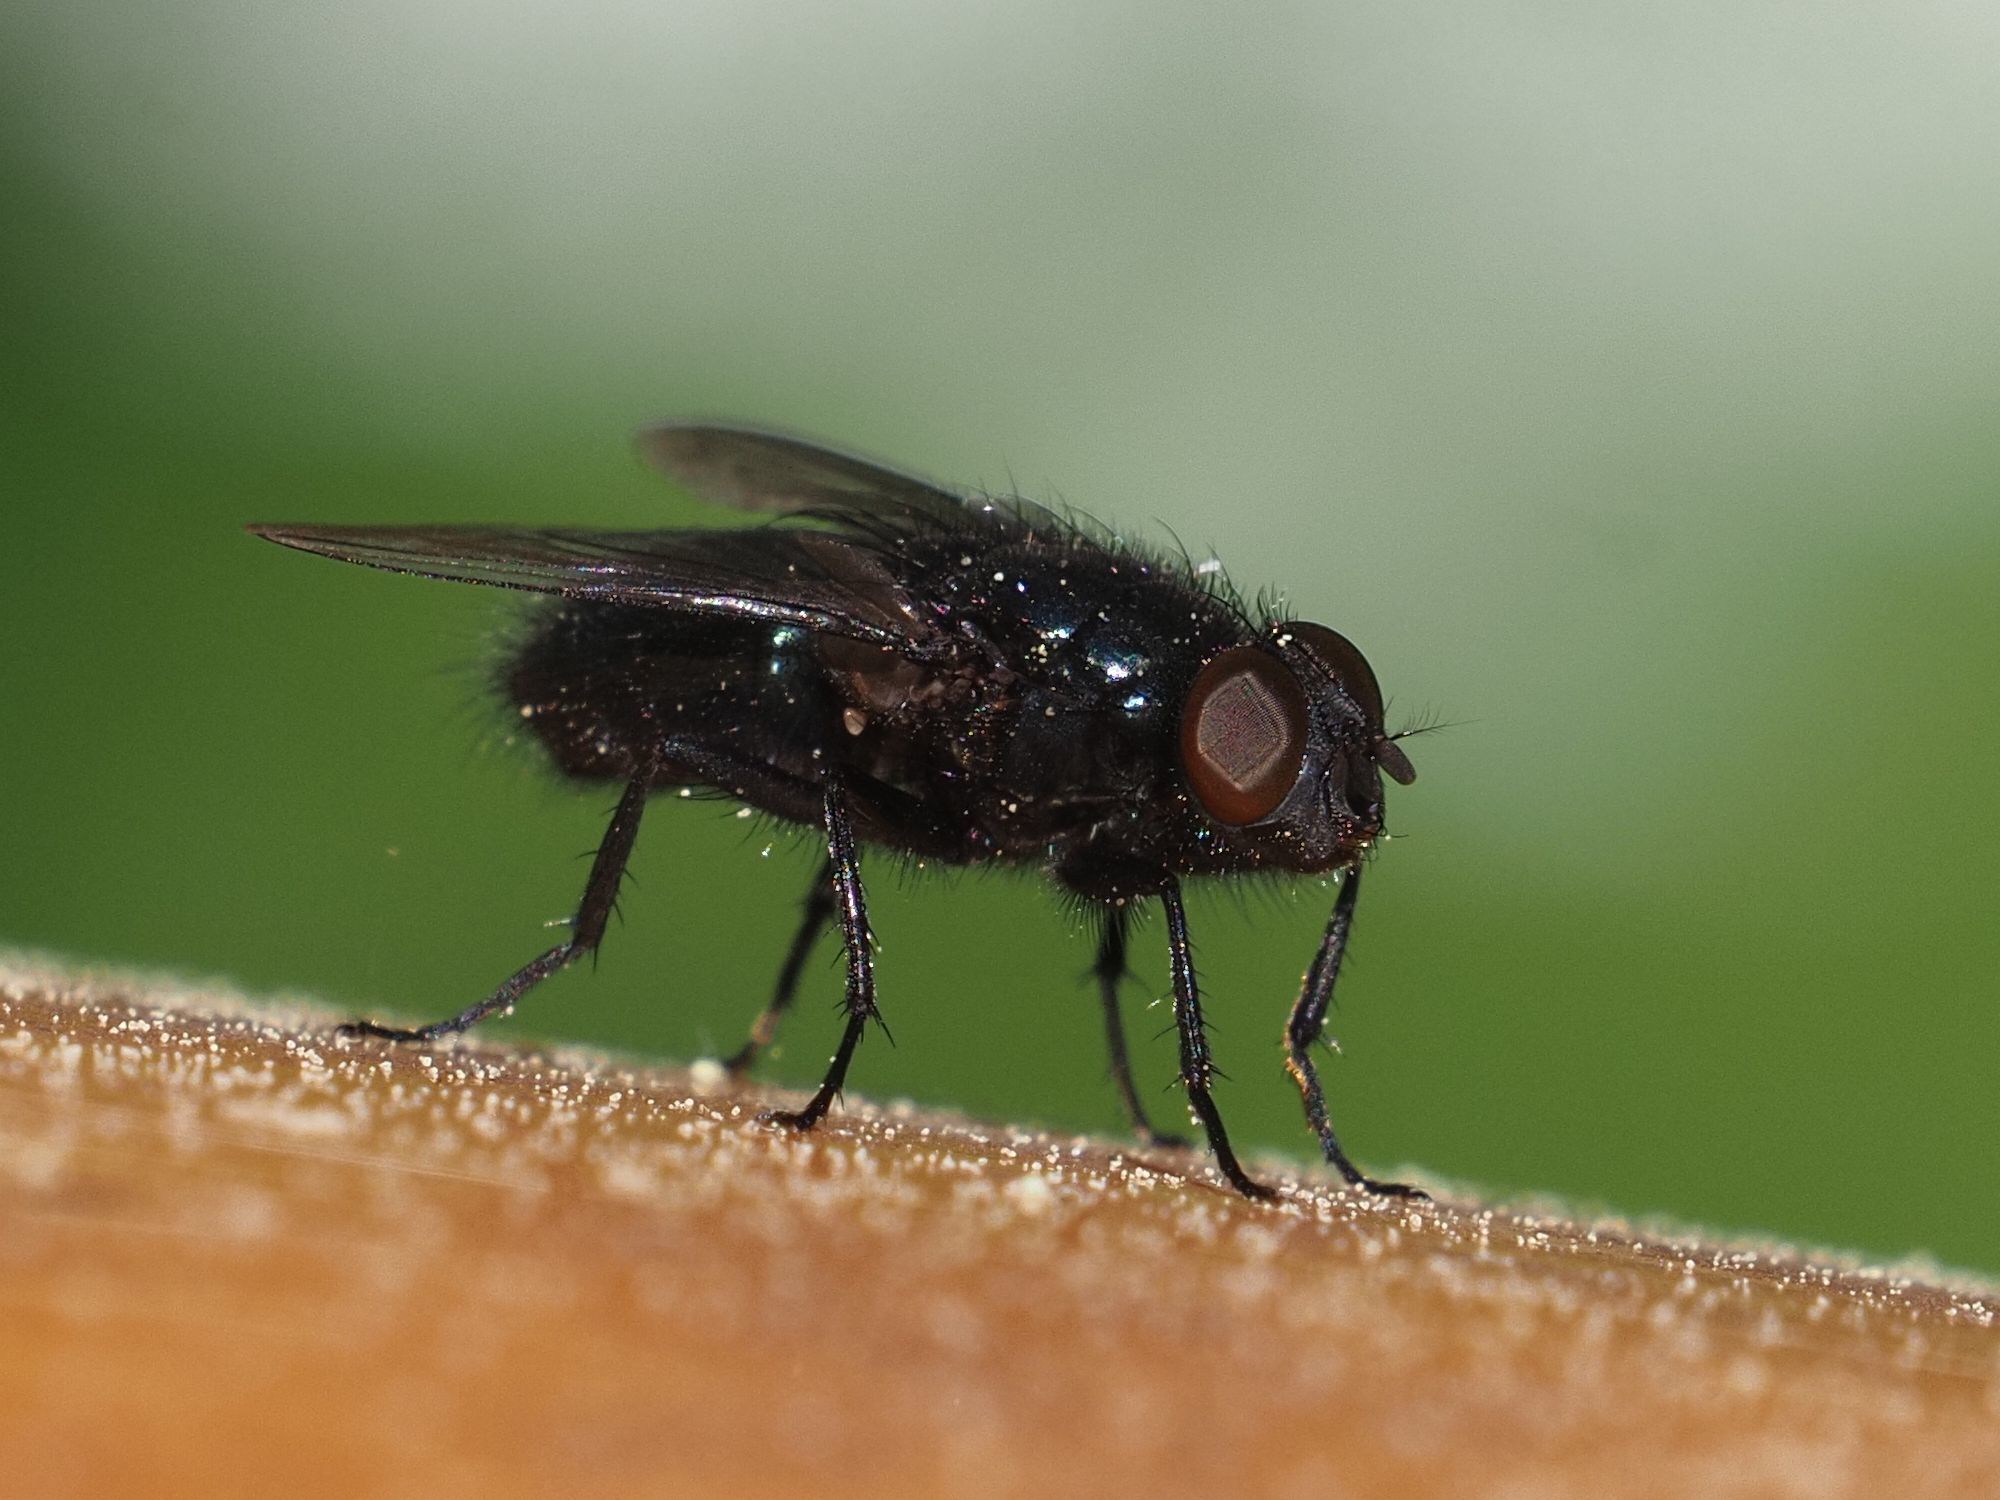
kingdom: Animalia
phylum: Arthropoda
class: Insecta
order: Diptera
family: Calliphoridae
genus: Protophormia
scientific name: Protophormia terraenovae
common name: Blackbottle
